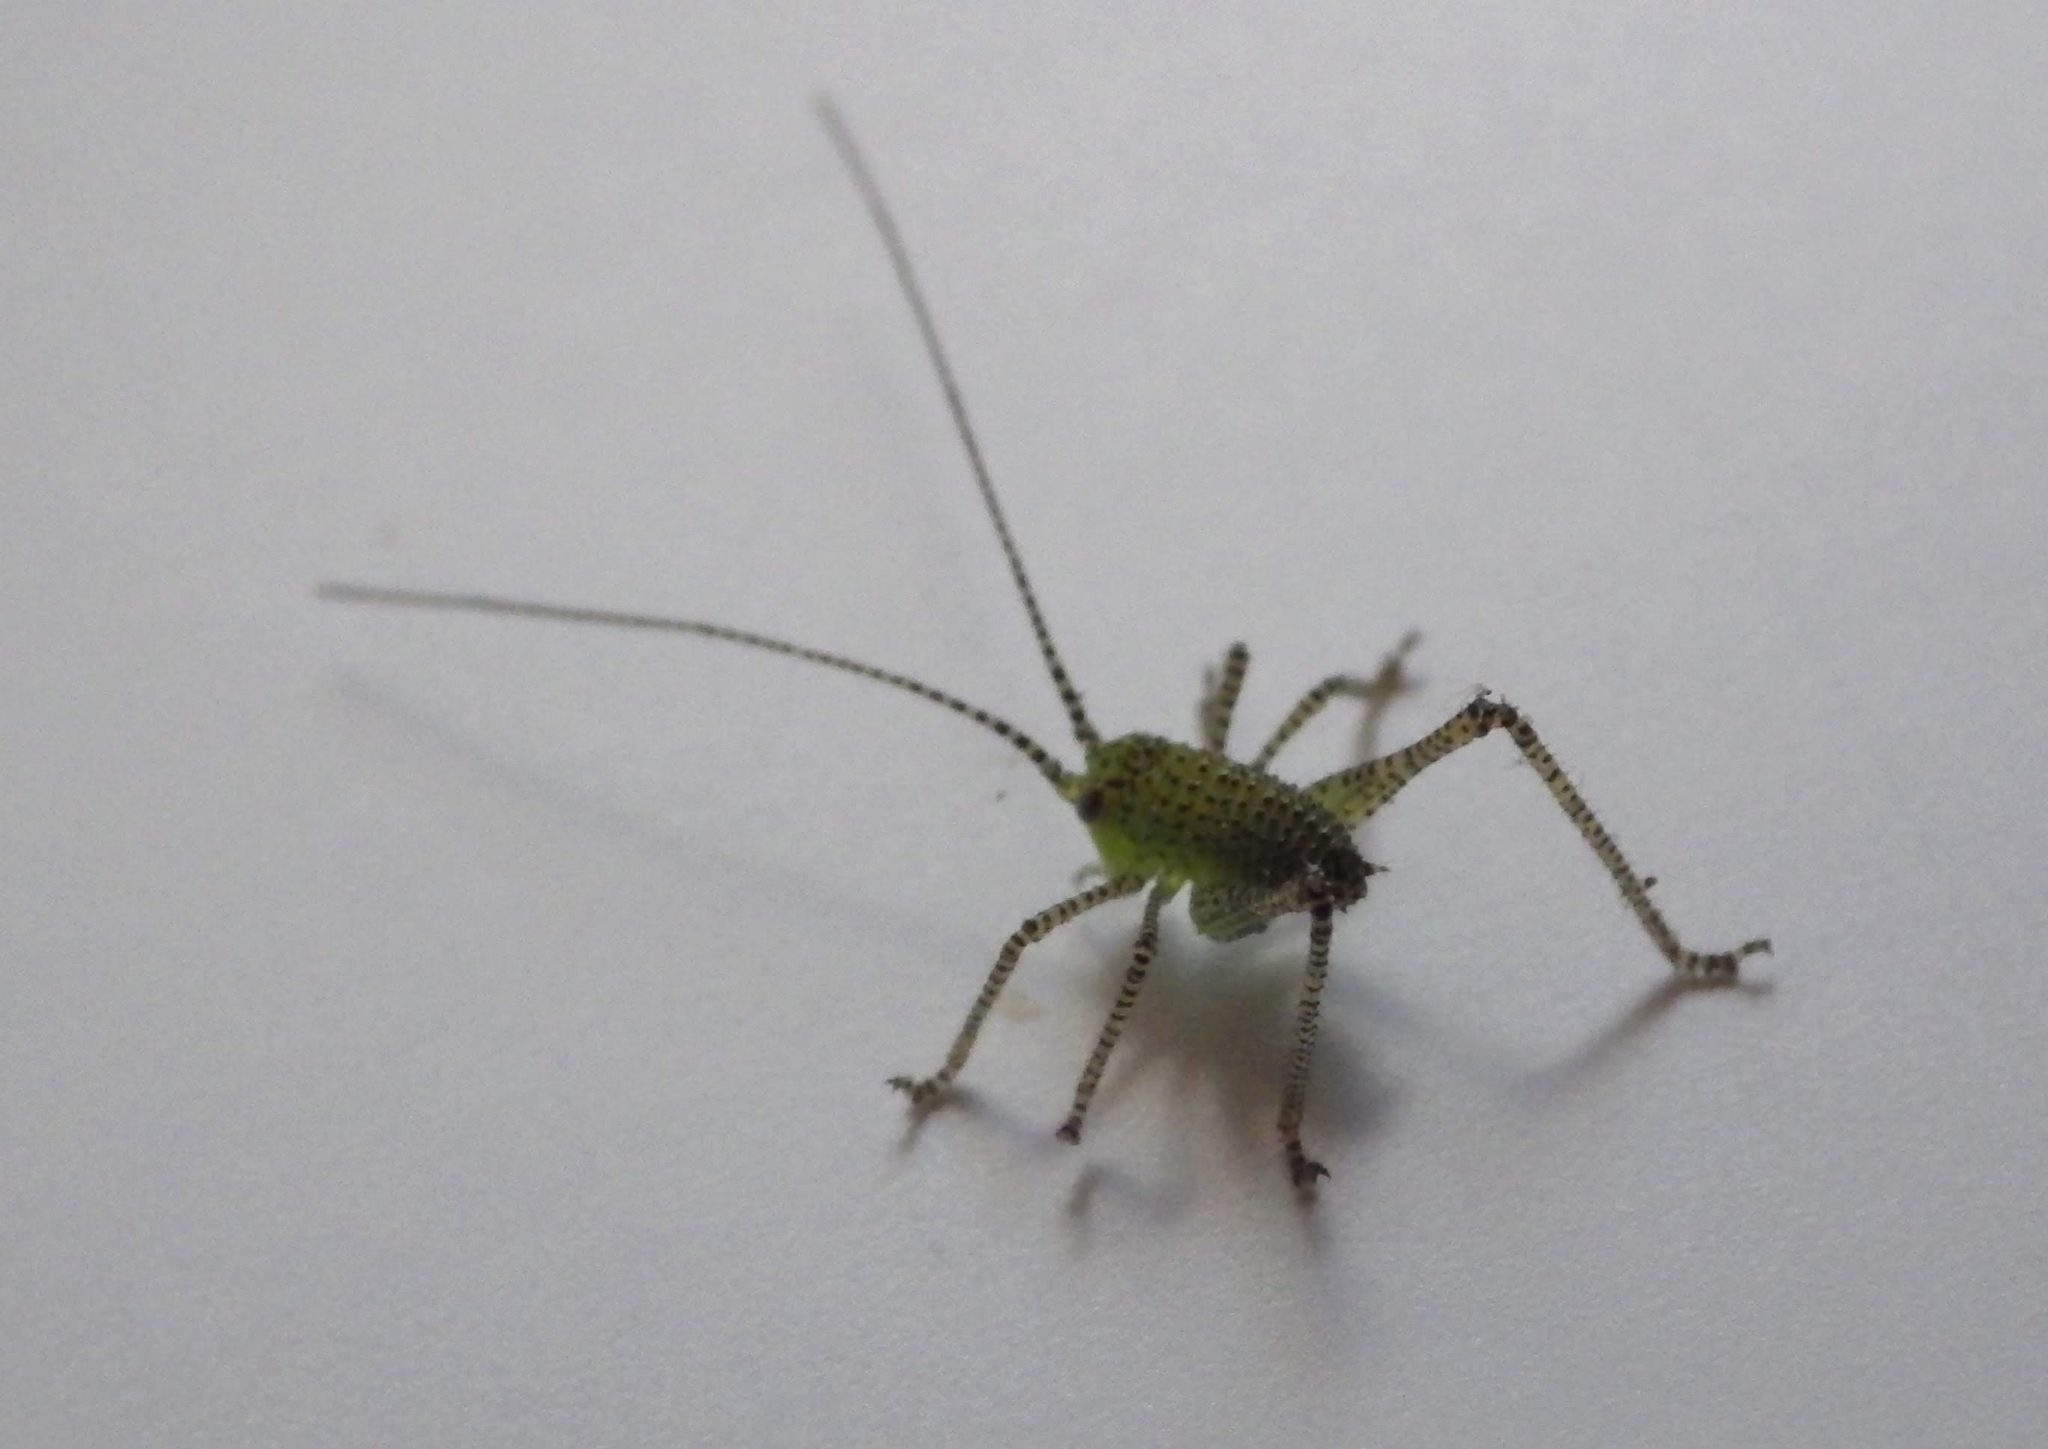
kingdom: Animalia
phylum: Arthropoda
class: Insecta
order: Orthoptera
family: Tettigoniidae
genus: Leptophyes
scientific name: Leptophyes punctatissima
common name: Speckled bush-cricket
